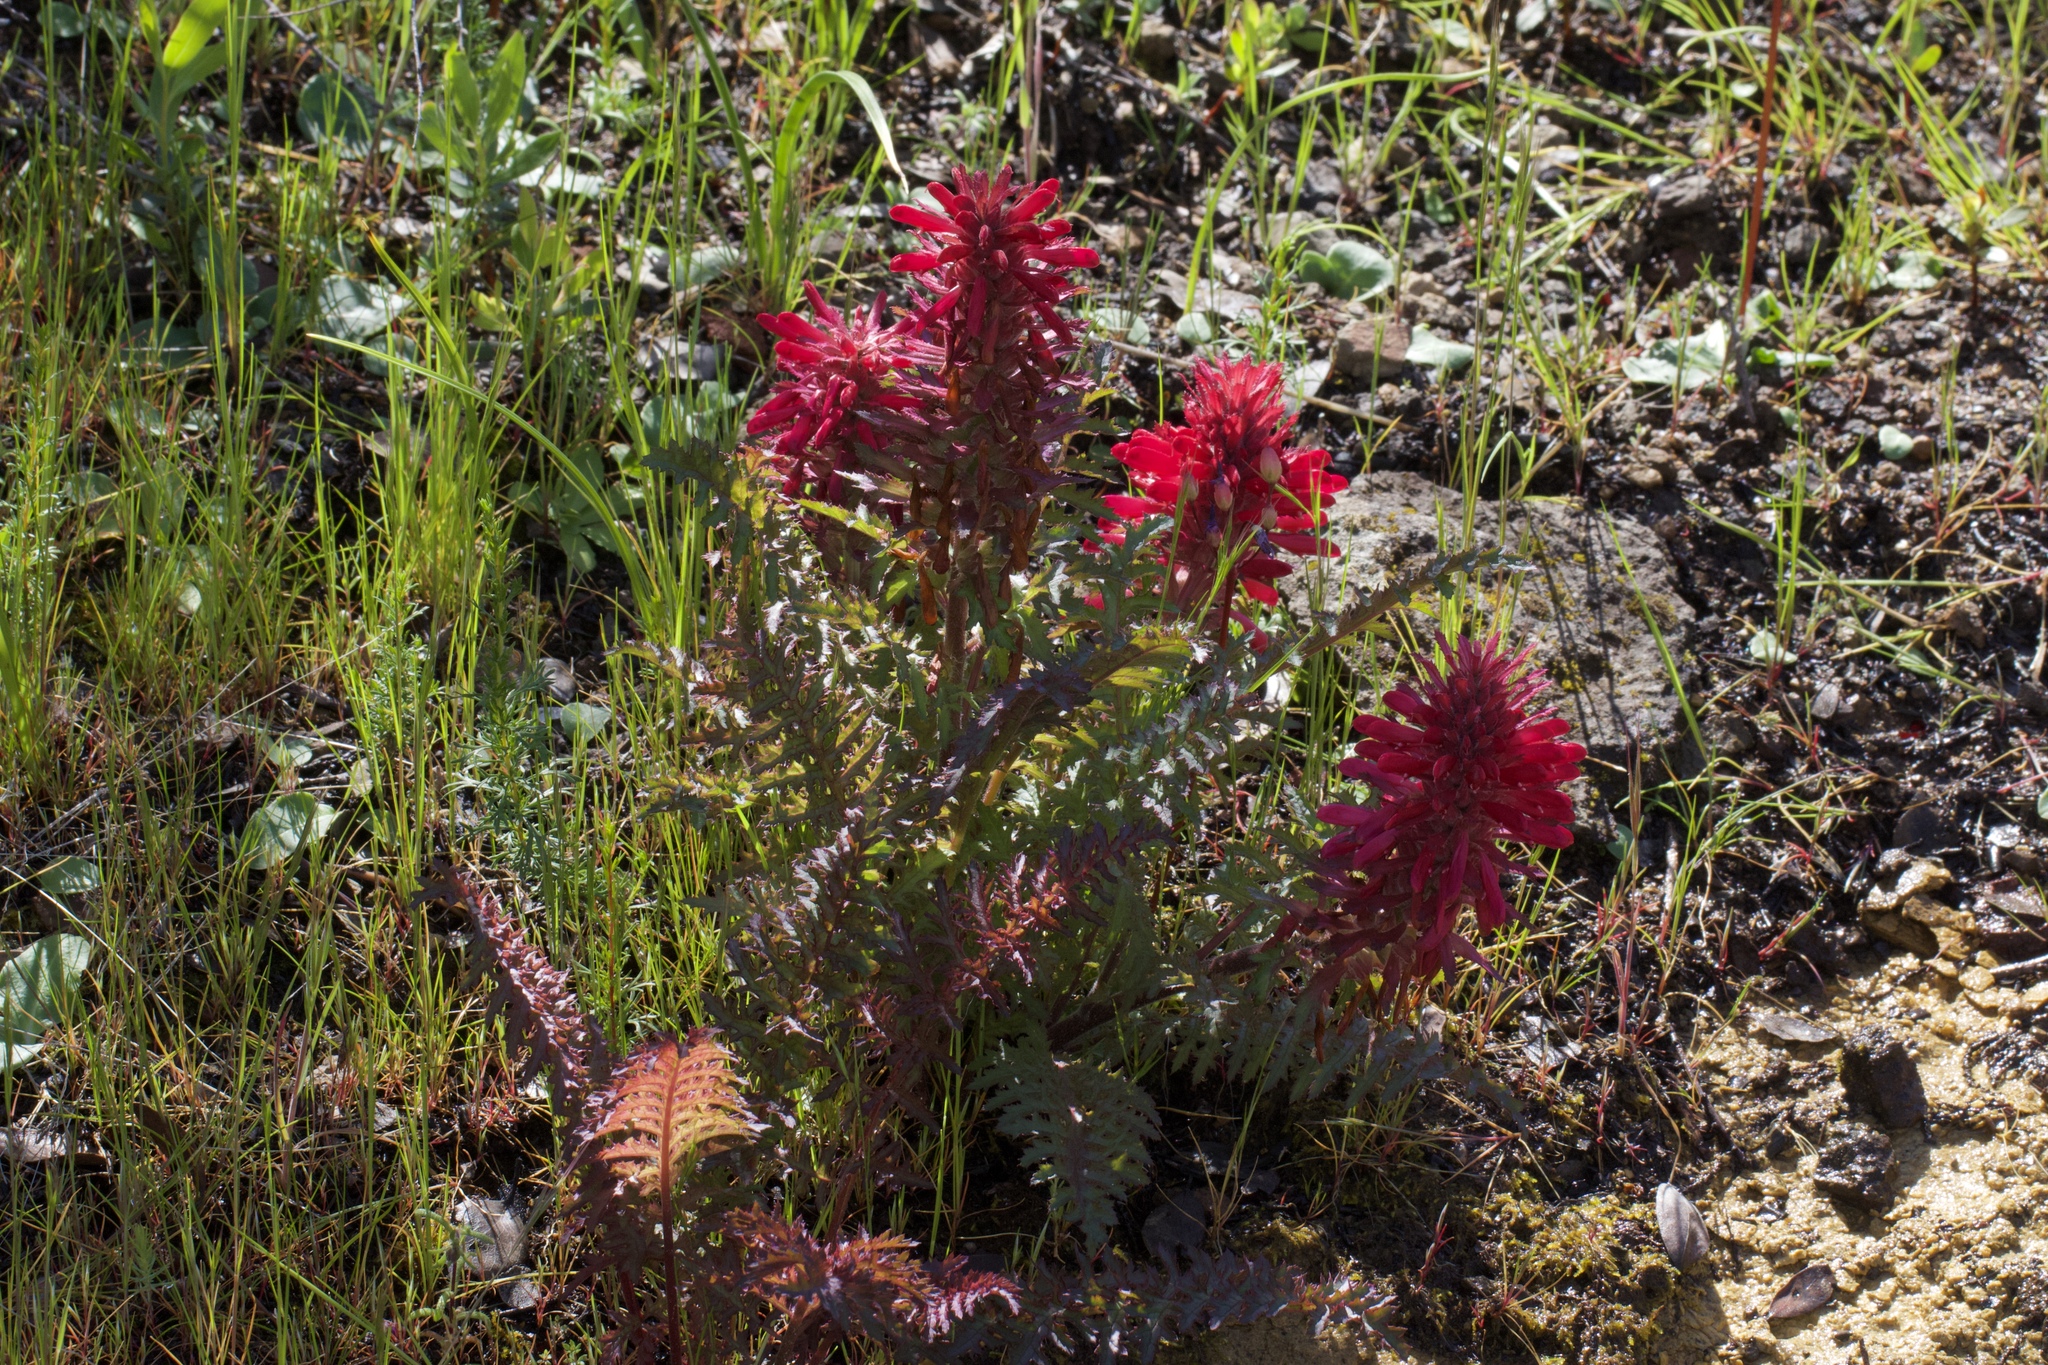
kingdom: Plantae
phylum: Tracheophyta
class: Magnoliopsida
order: Lamiales
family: Orobanchaceae
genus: Pedicularis
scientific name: Pedicularis densiflora
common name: Indian warrior
